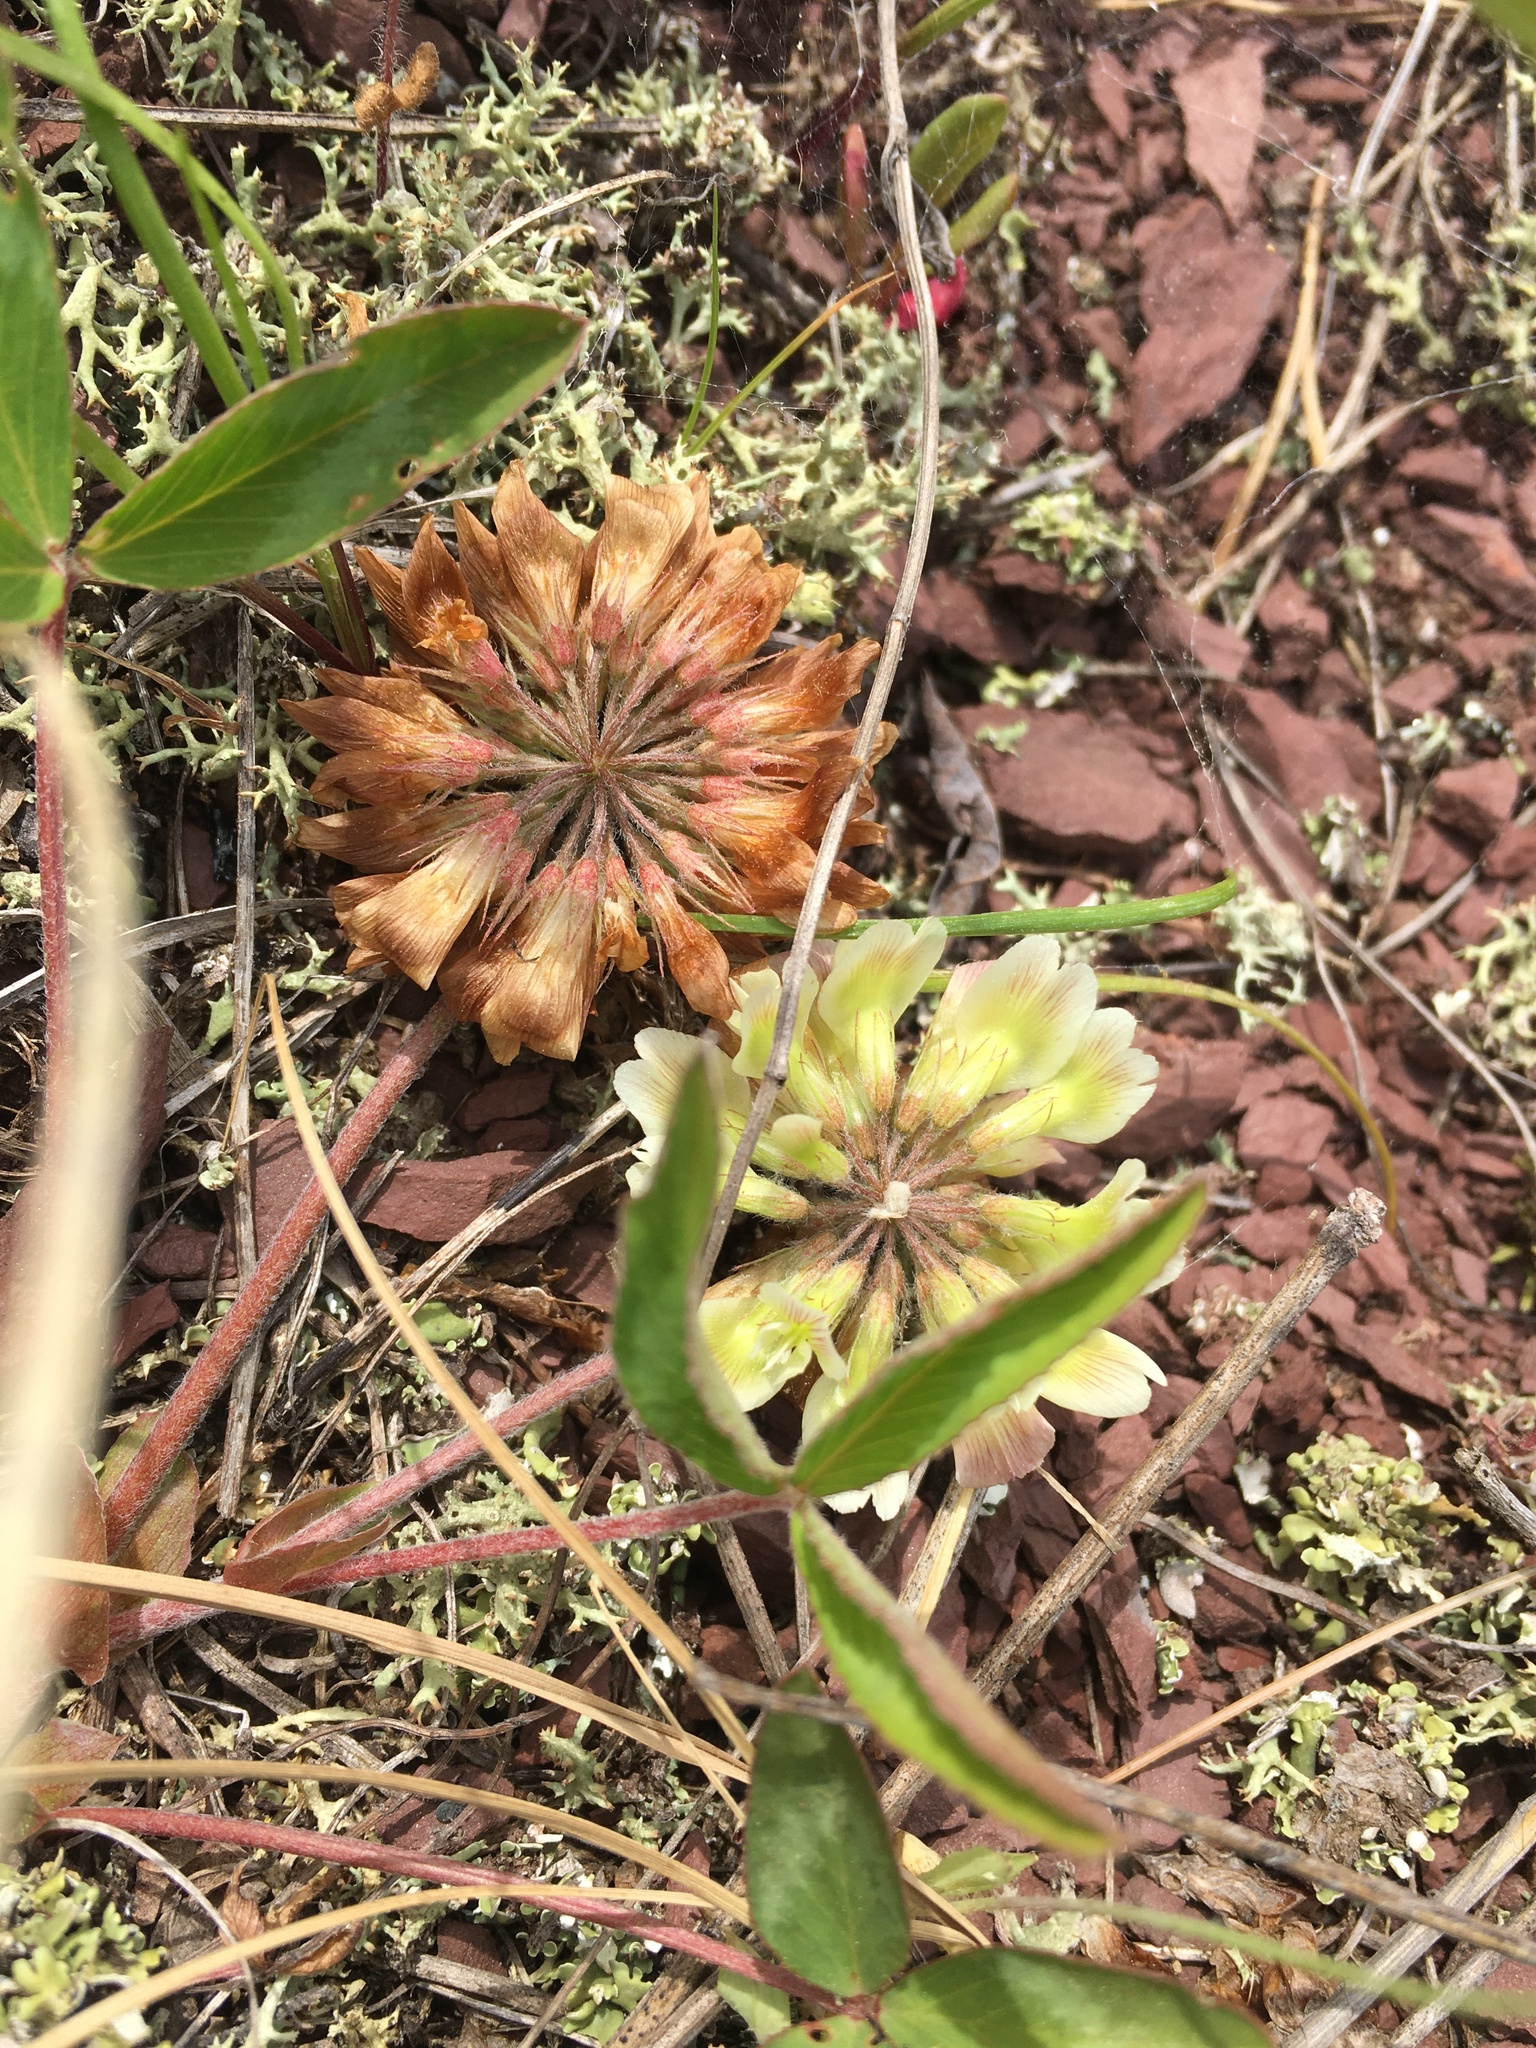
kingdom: Plantae
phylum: Tracheophyta
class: Magnoliopsida
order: Fabales
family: Fabaceae
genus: Trifolium
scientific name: Trifolium virginicum
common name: Kate's mountain clover
